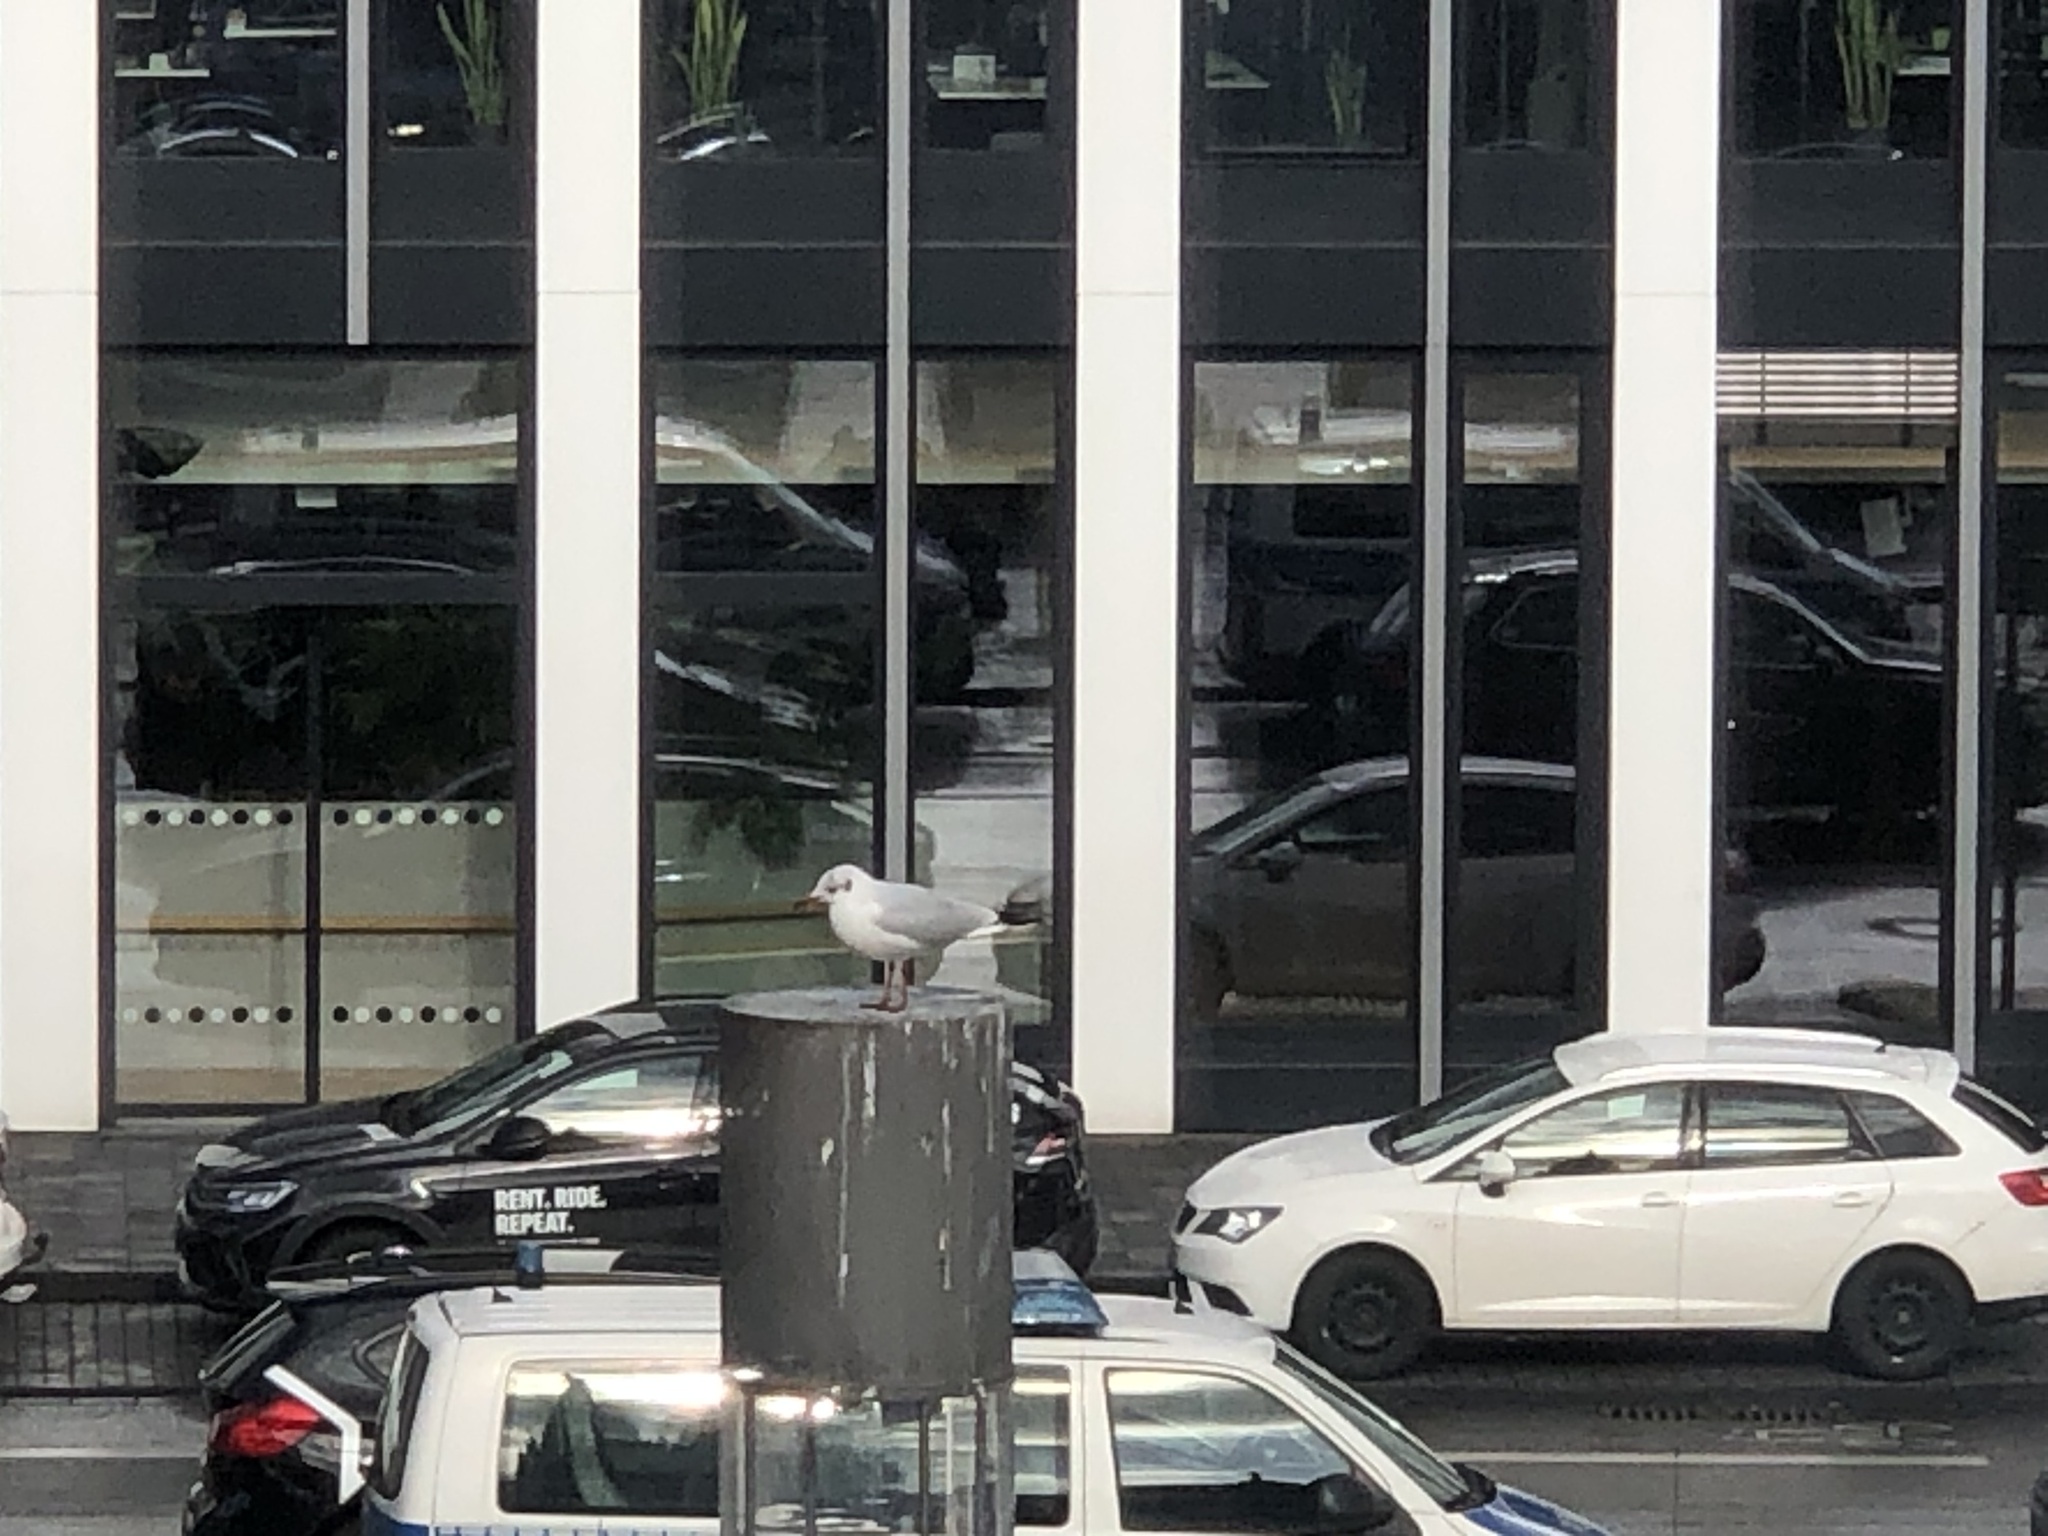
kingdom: Animalia
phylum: Chordata
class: Aves
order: Charadriiformes
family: Laridae
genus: Chroicocephalus
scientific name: Chroicocephalus ridibundus
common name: Black-headed gull
